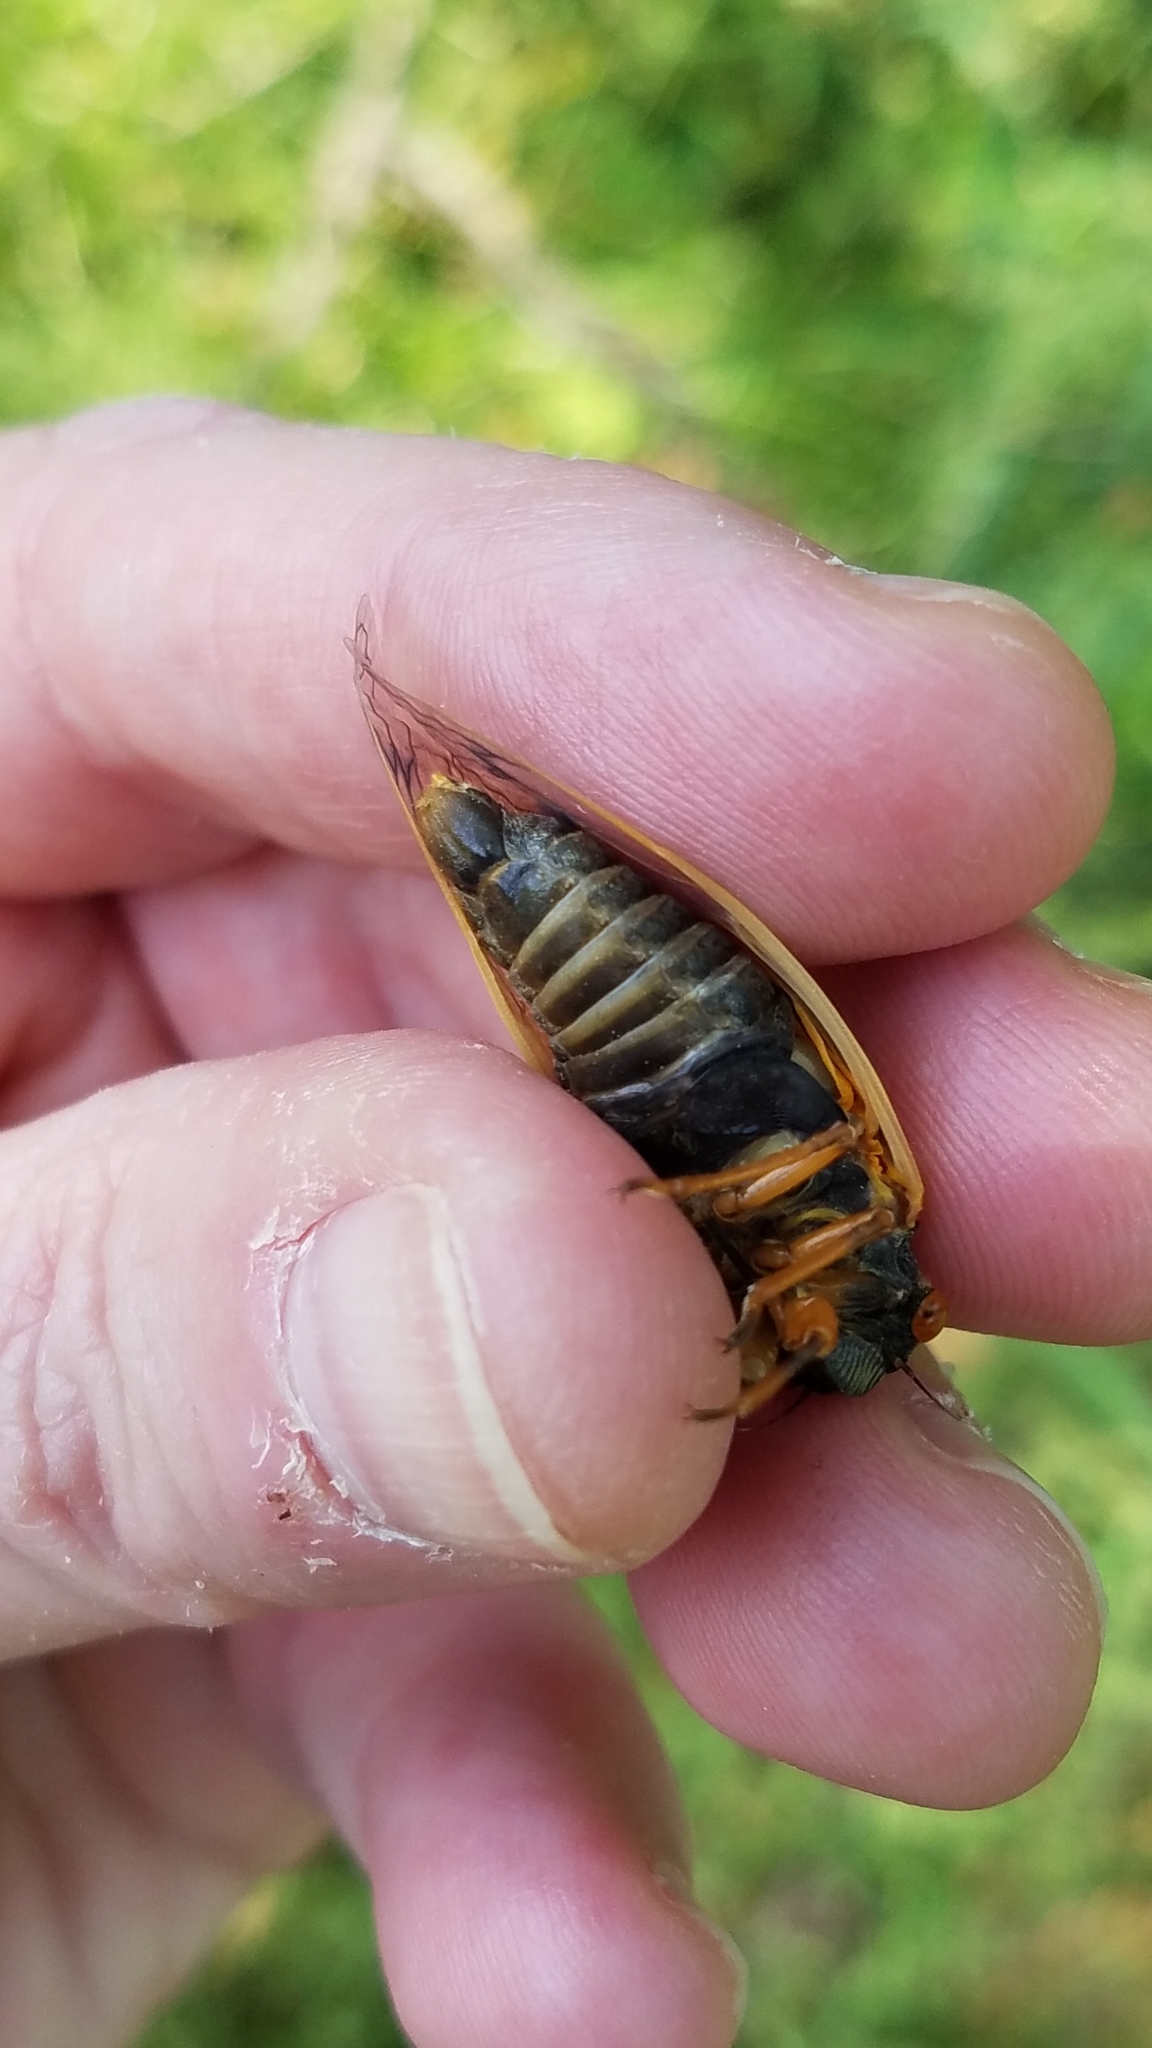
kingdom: Animalia
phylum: Arthropoda
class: Insecta
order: Hemiptera
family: Cicadidae
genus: Magicicada
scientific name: Magicicada cassini
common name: Cassin's 17-year cicada
